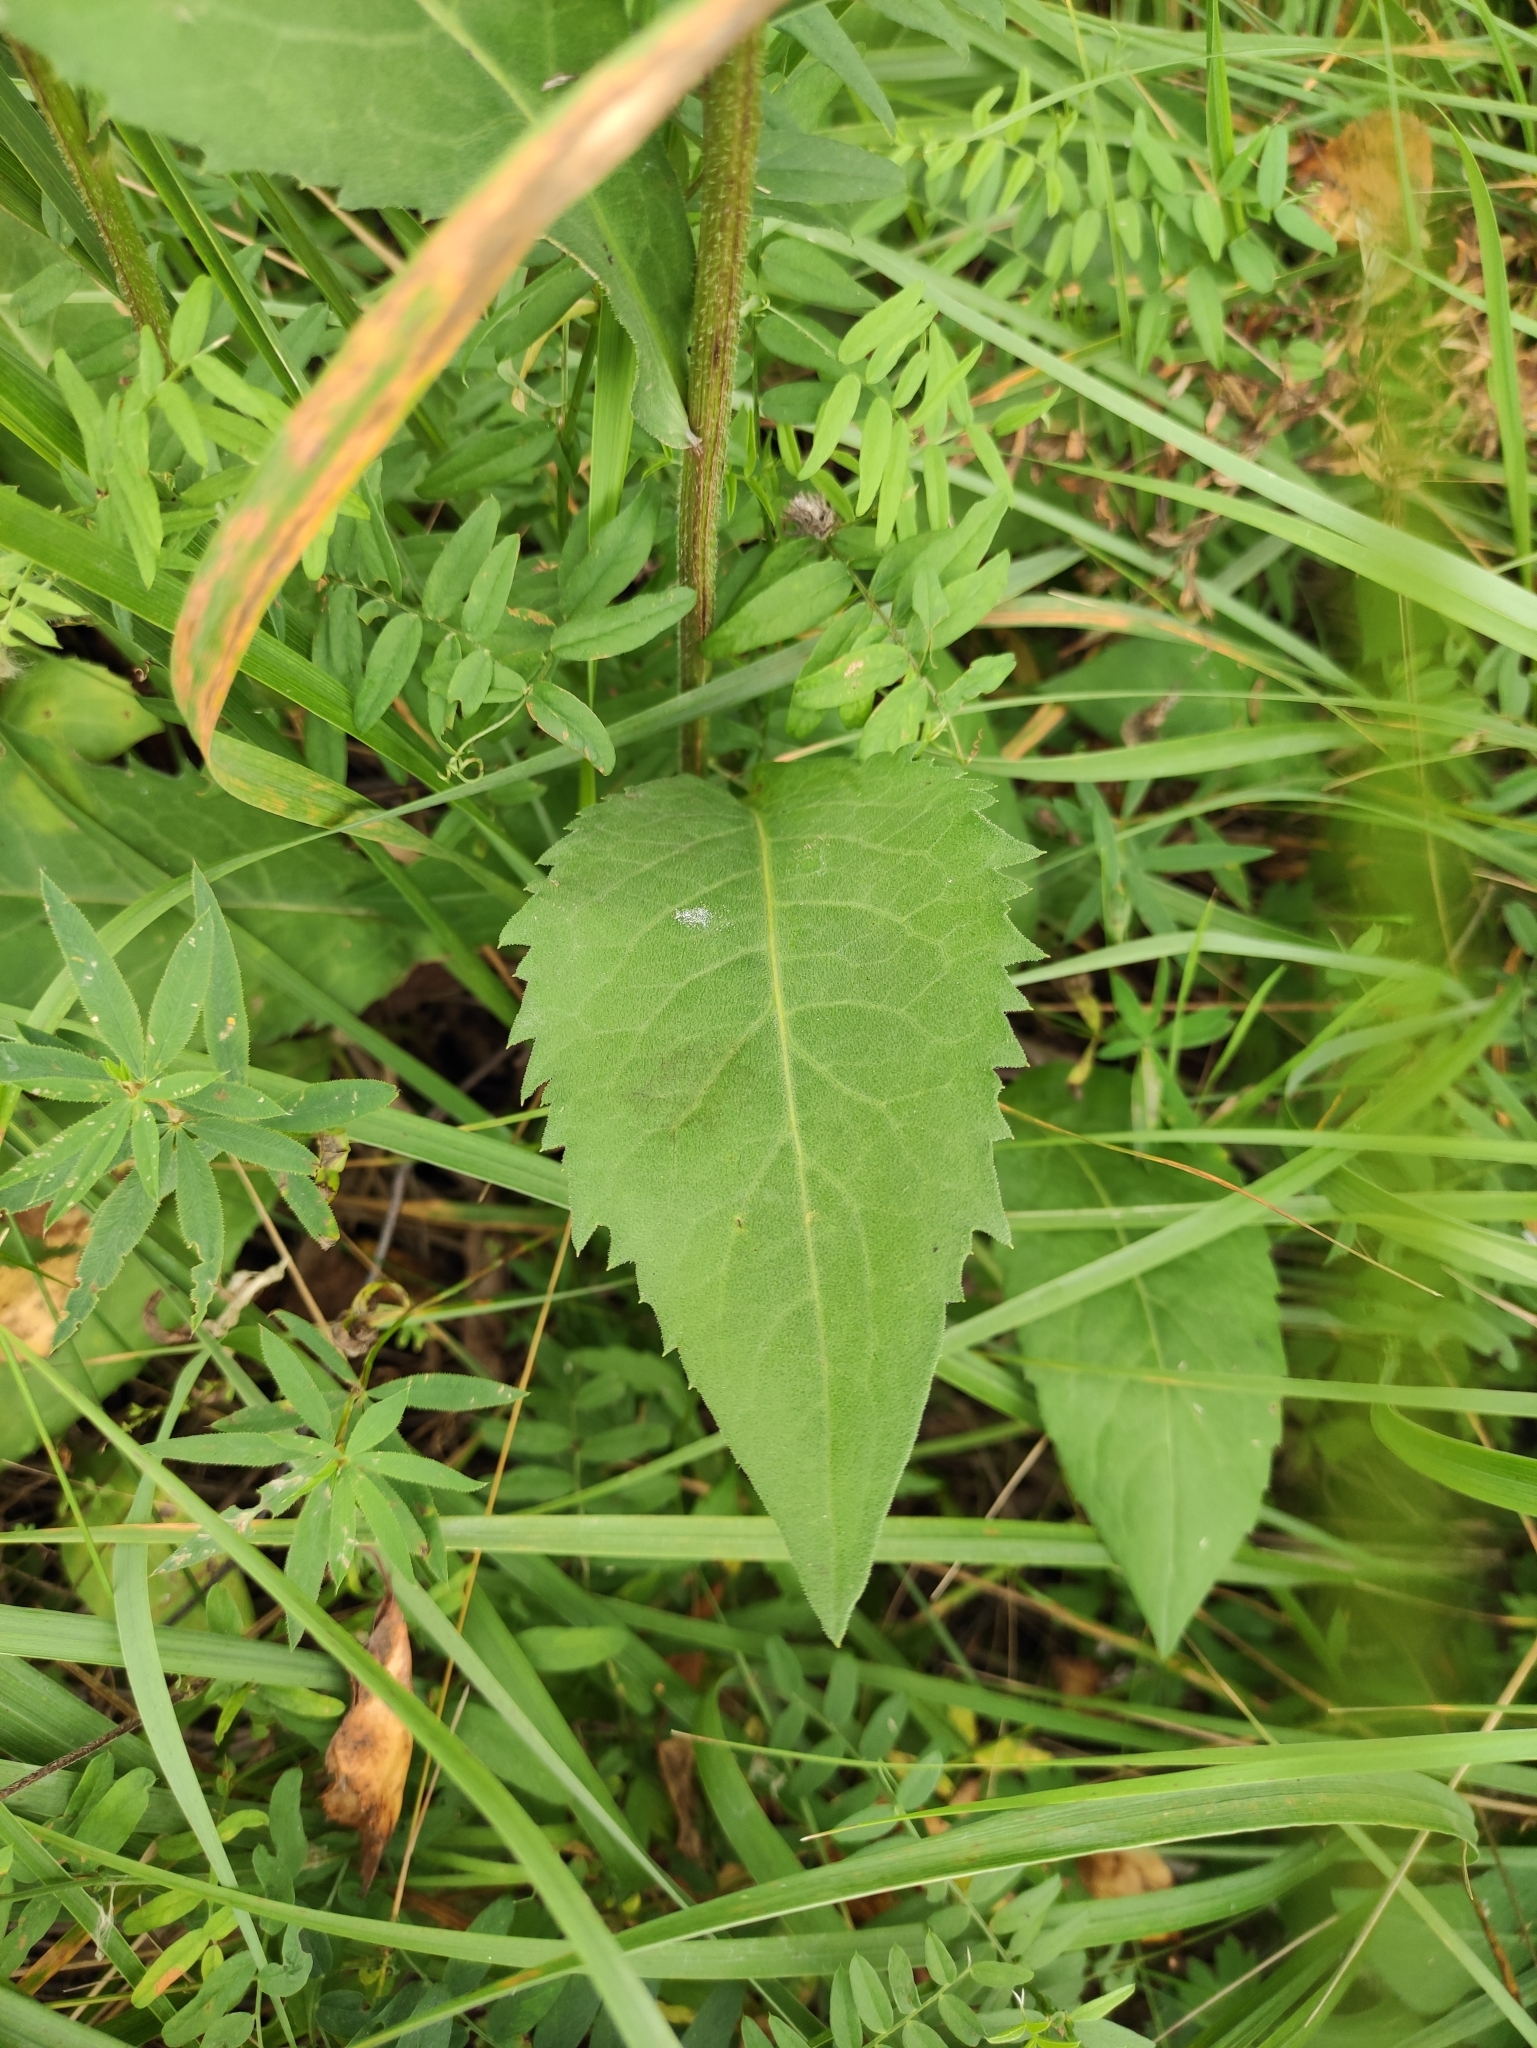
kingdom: Plantae
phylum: Tracheophyta
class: Magnoliopsida
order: Asterales
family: Asteraceae
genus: Aster
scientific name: Aster tataricus
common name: Tatarian aster
